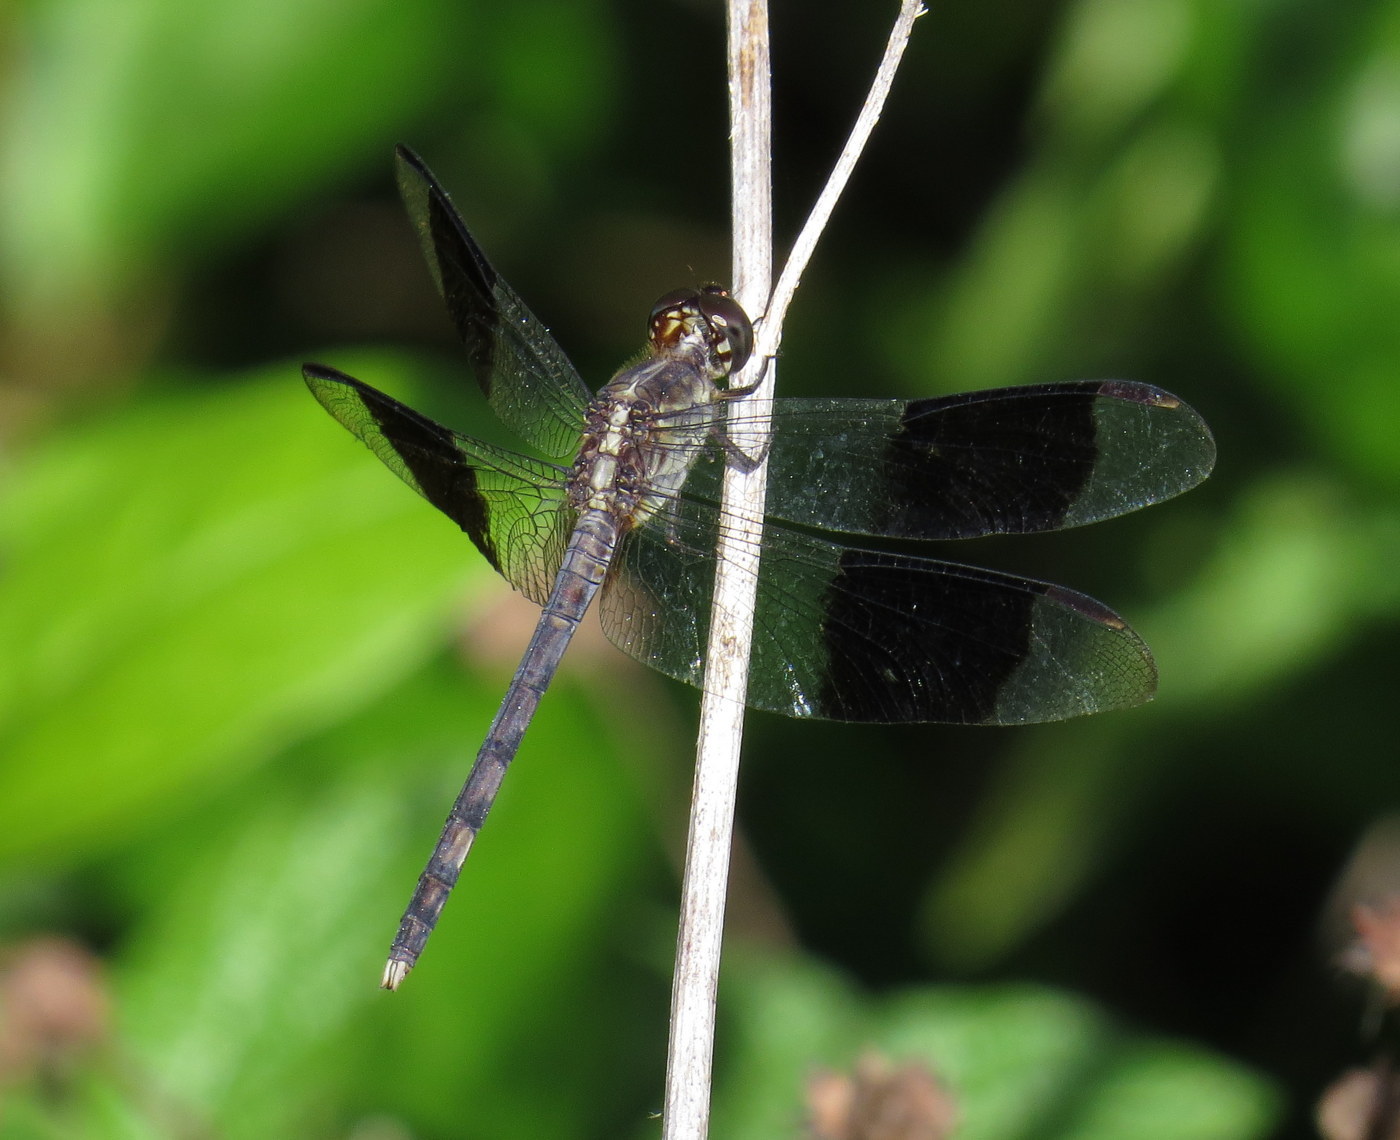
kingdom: Animalia
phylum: Arthropoda
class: Insecta
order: Odonata
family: Libellulidae
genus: Erythrodiplax
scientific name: Erythrodiplax umbrata
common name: Band-winged dragonlet
